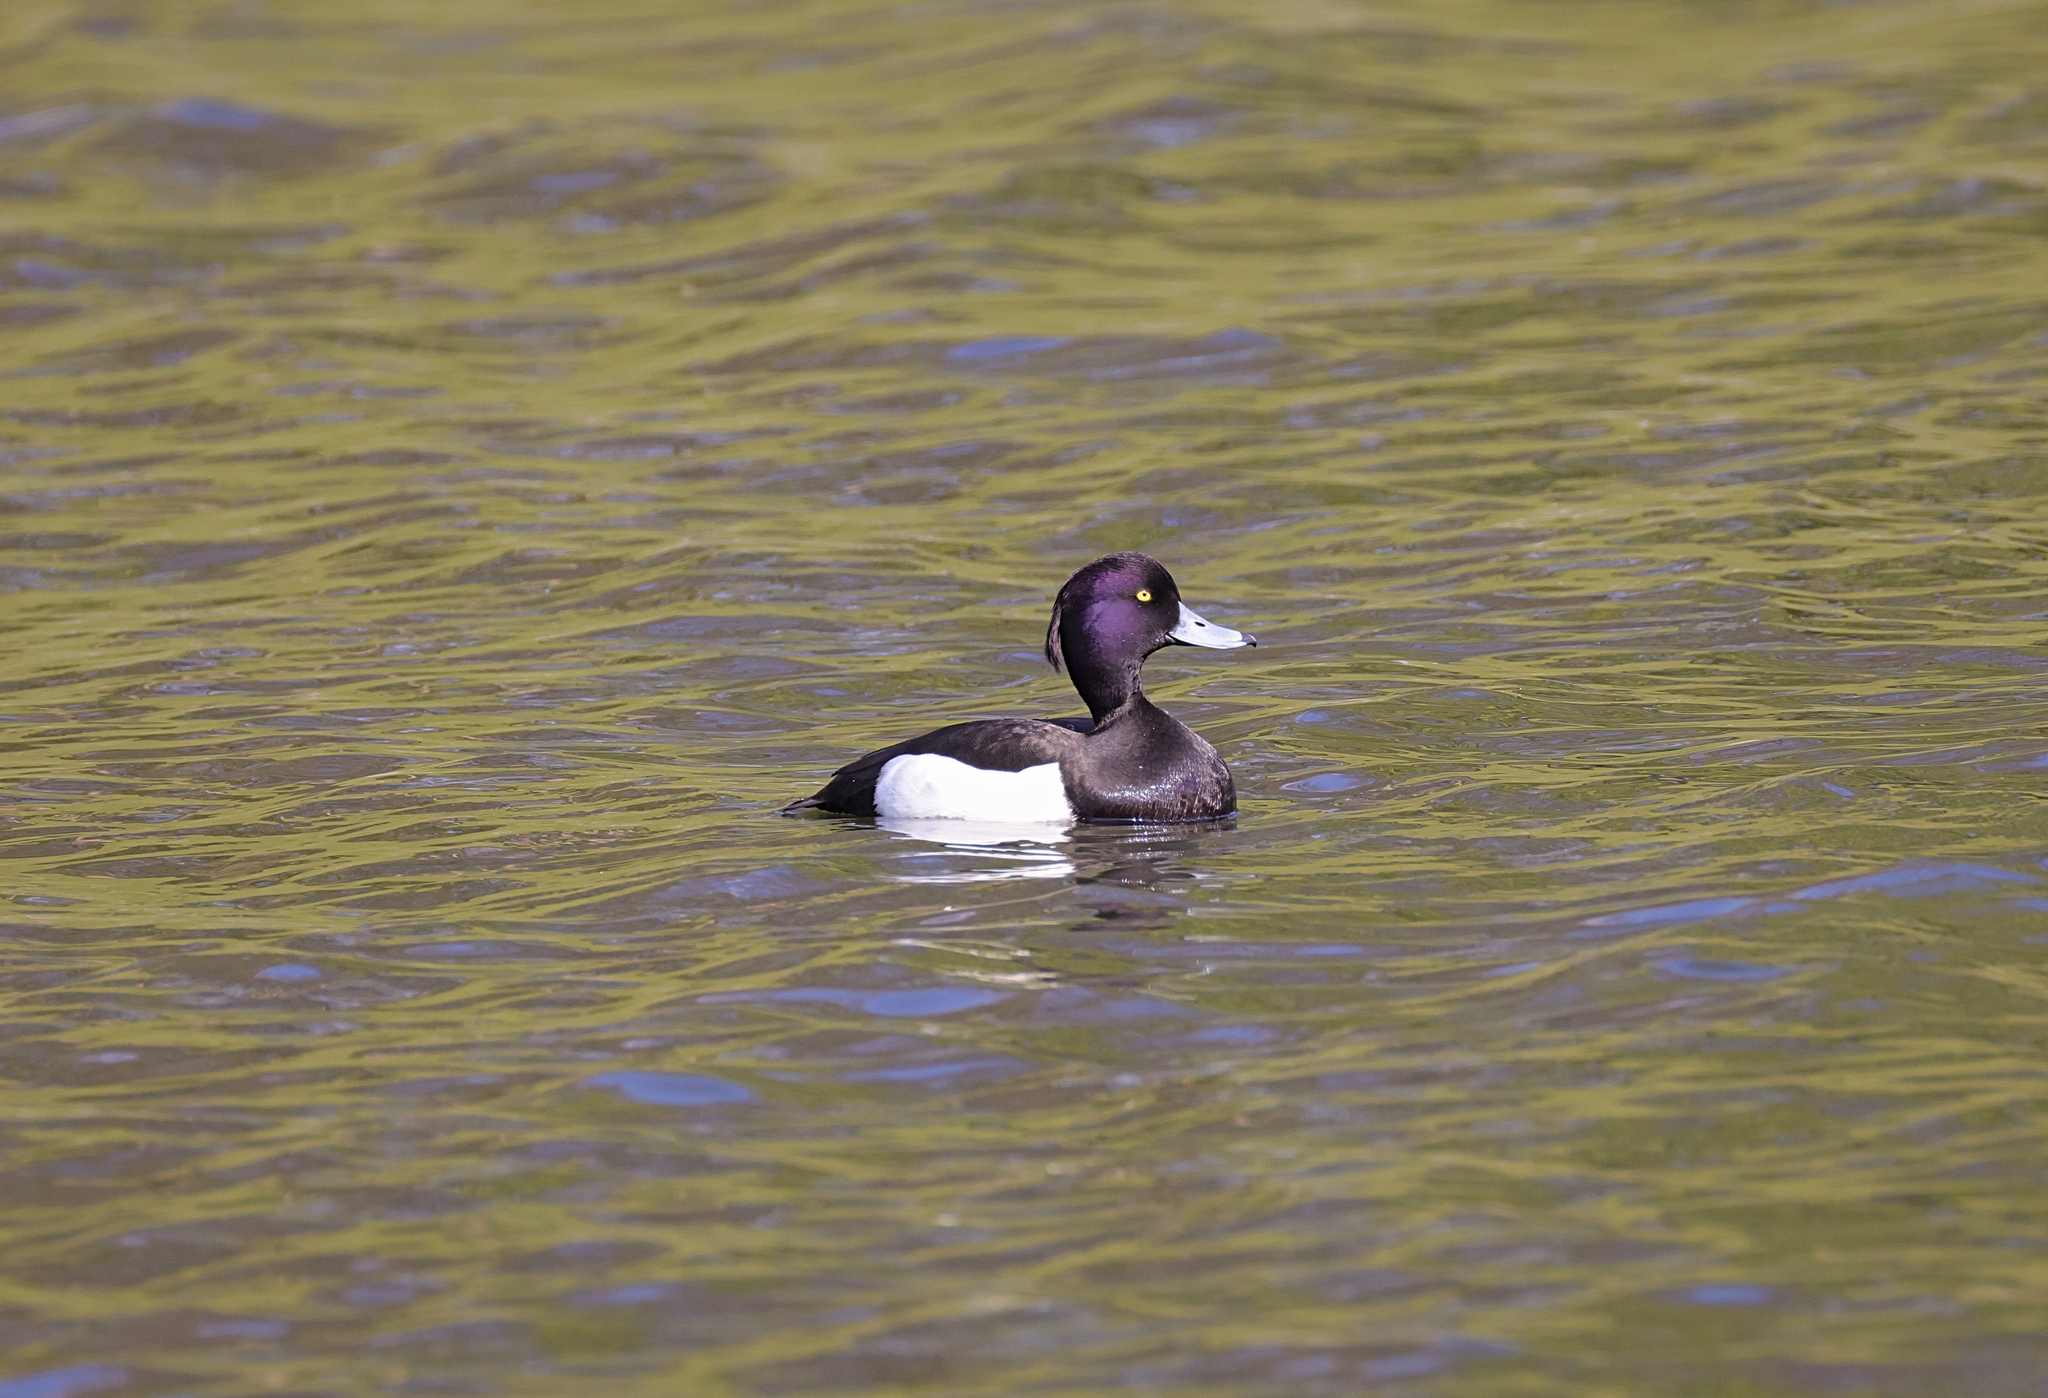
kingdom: Animalia
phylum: Chordata
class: Aves
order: Anseriformes
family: Anatidae
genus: Aythya
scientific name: Aythya fuligula
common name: Tufted duck
